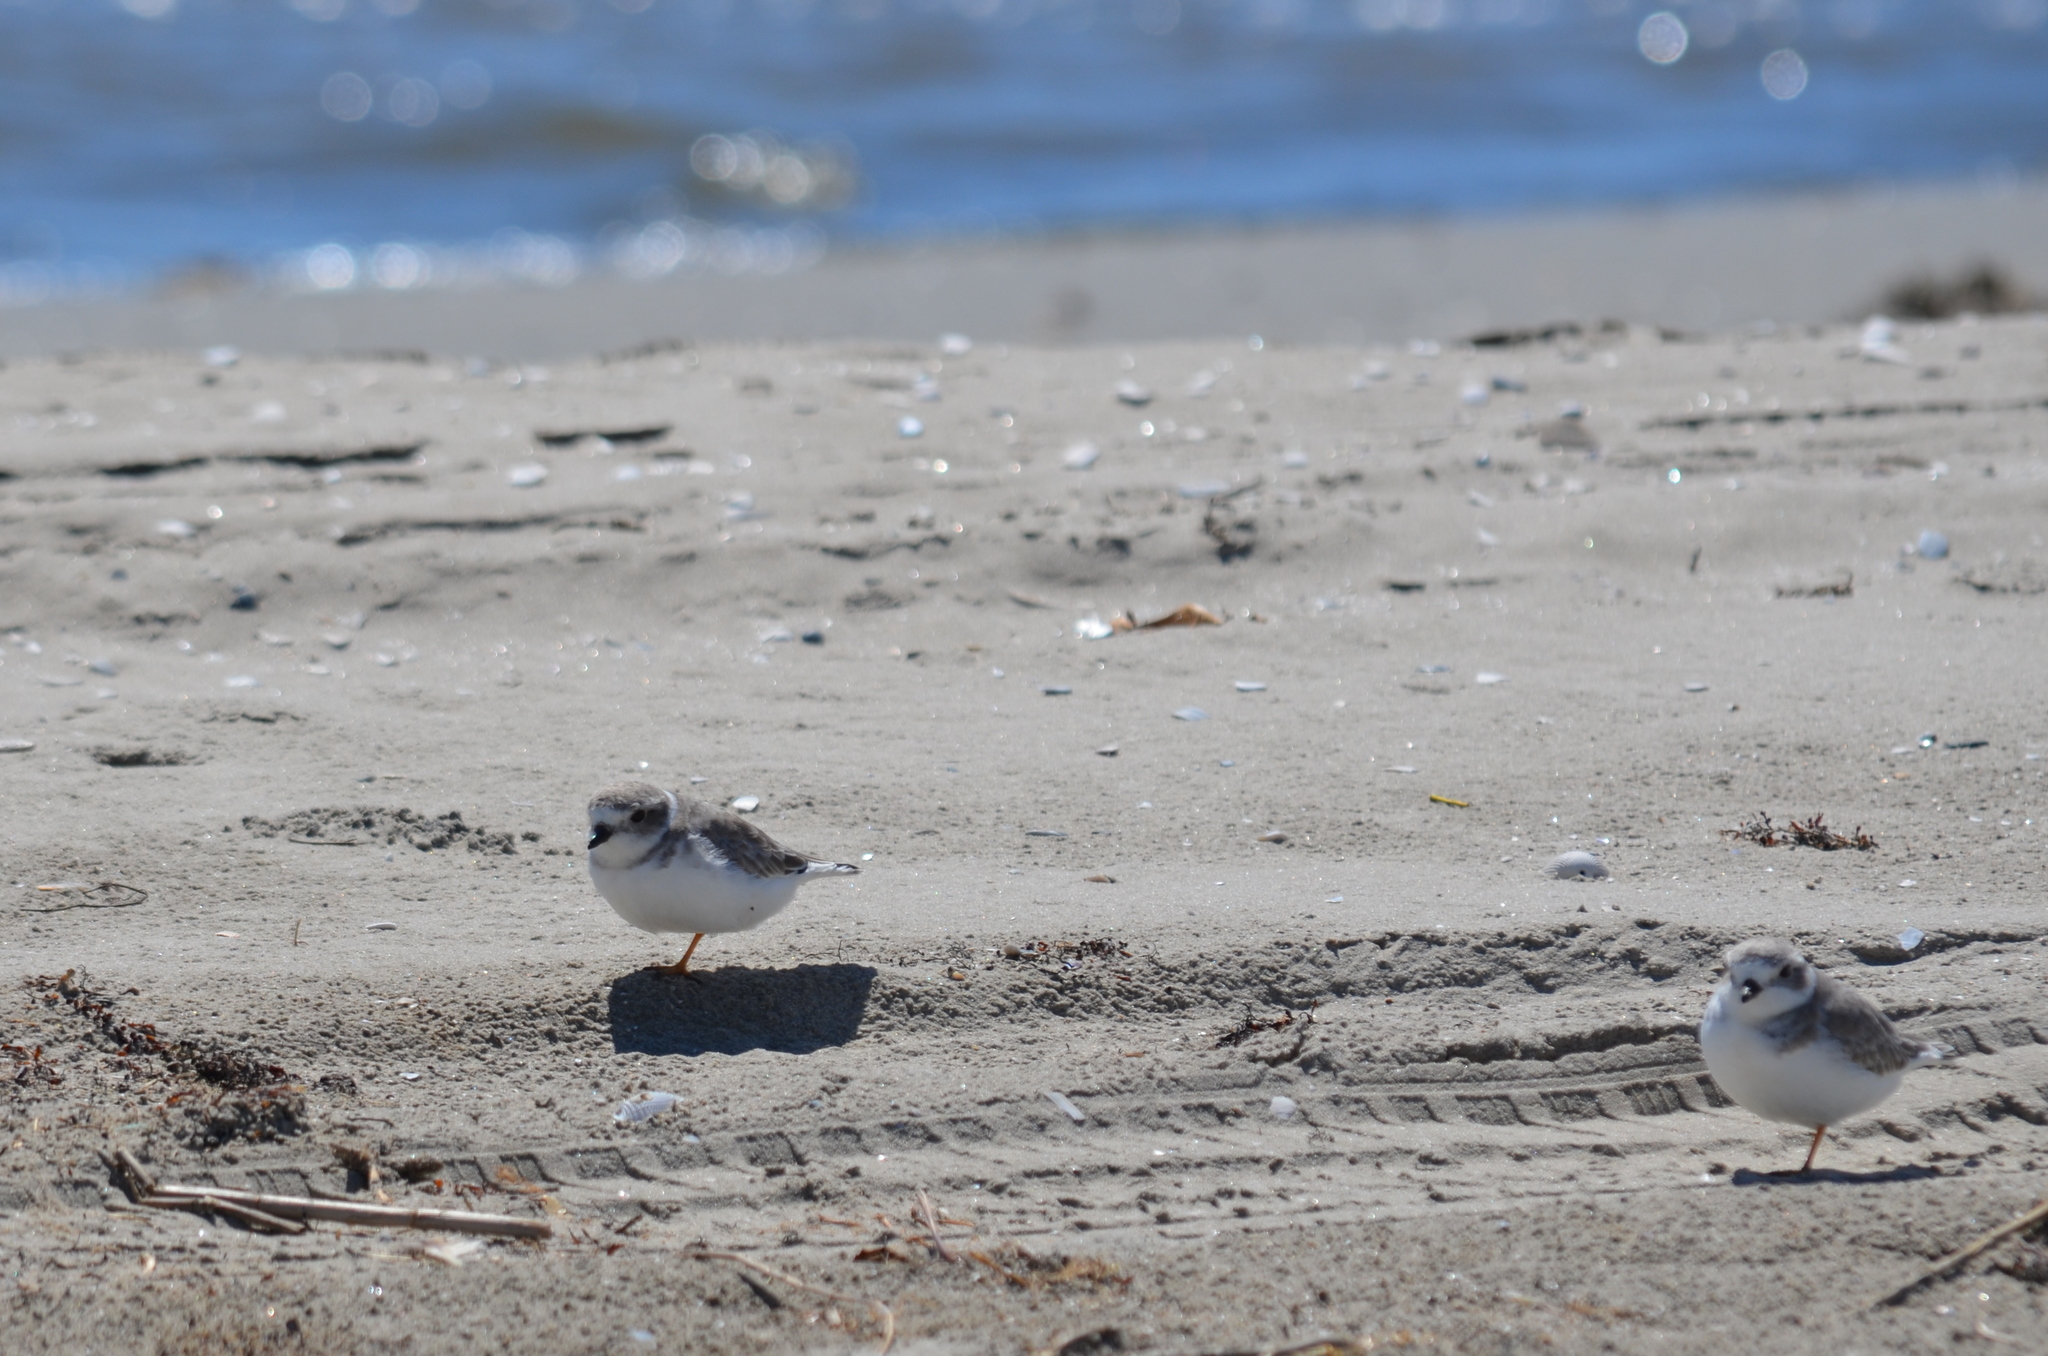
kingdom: Animalia
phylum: Chordata
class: Aves
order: Charadriiformes
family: Charadriidae
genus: Anarhynchus
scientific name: Anarhynchus
